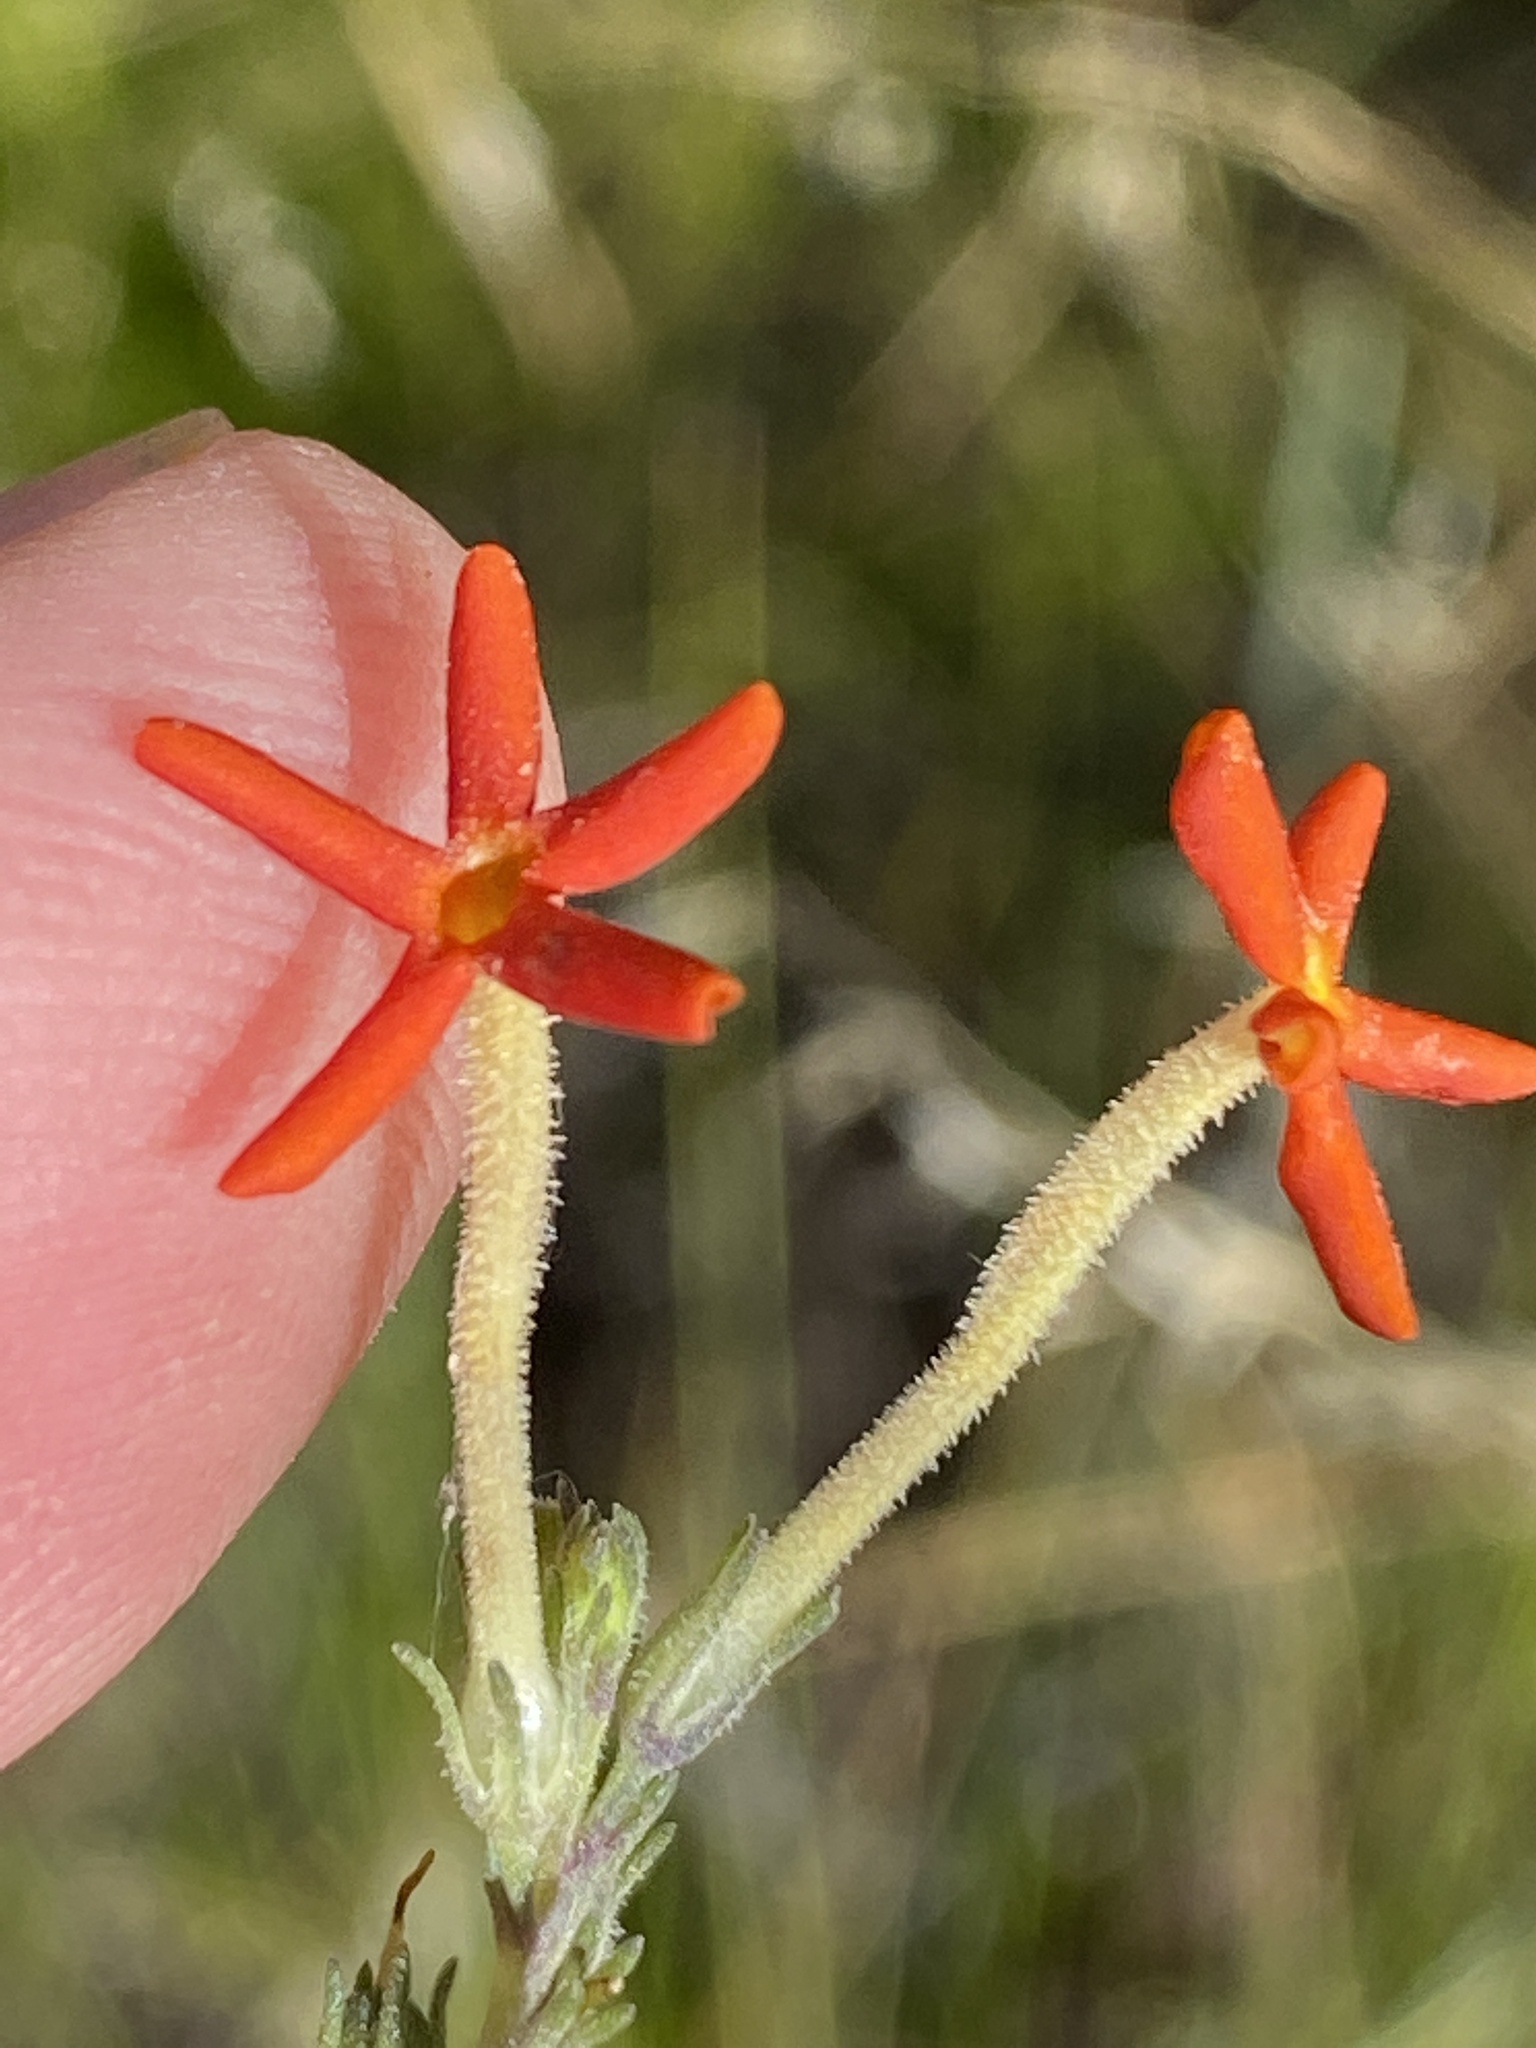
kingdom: Plantae
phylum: Tracheophyta
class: Magnoliopsida
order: Lamiales
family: Scrophulariaceae
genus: Manulea
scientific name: Manulea juncea
